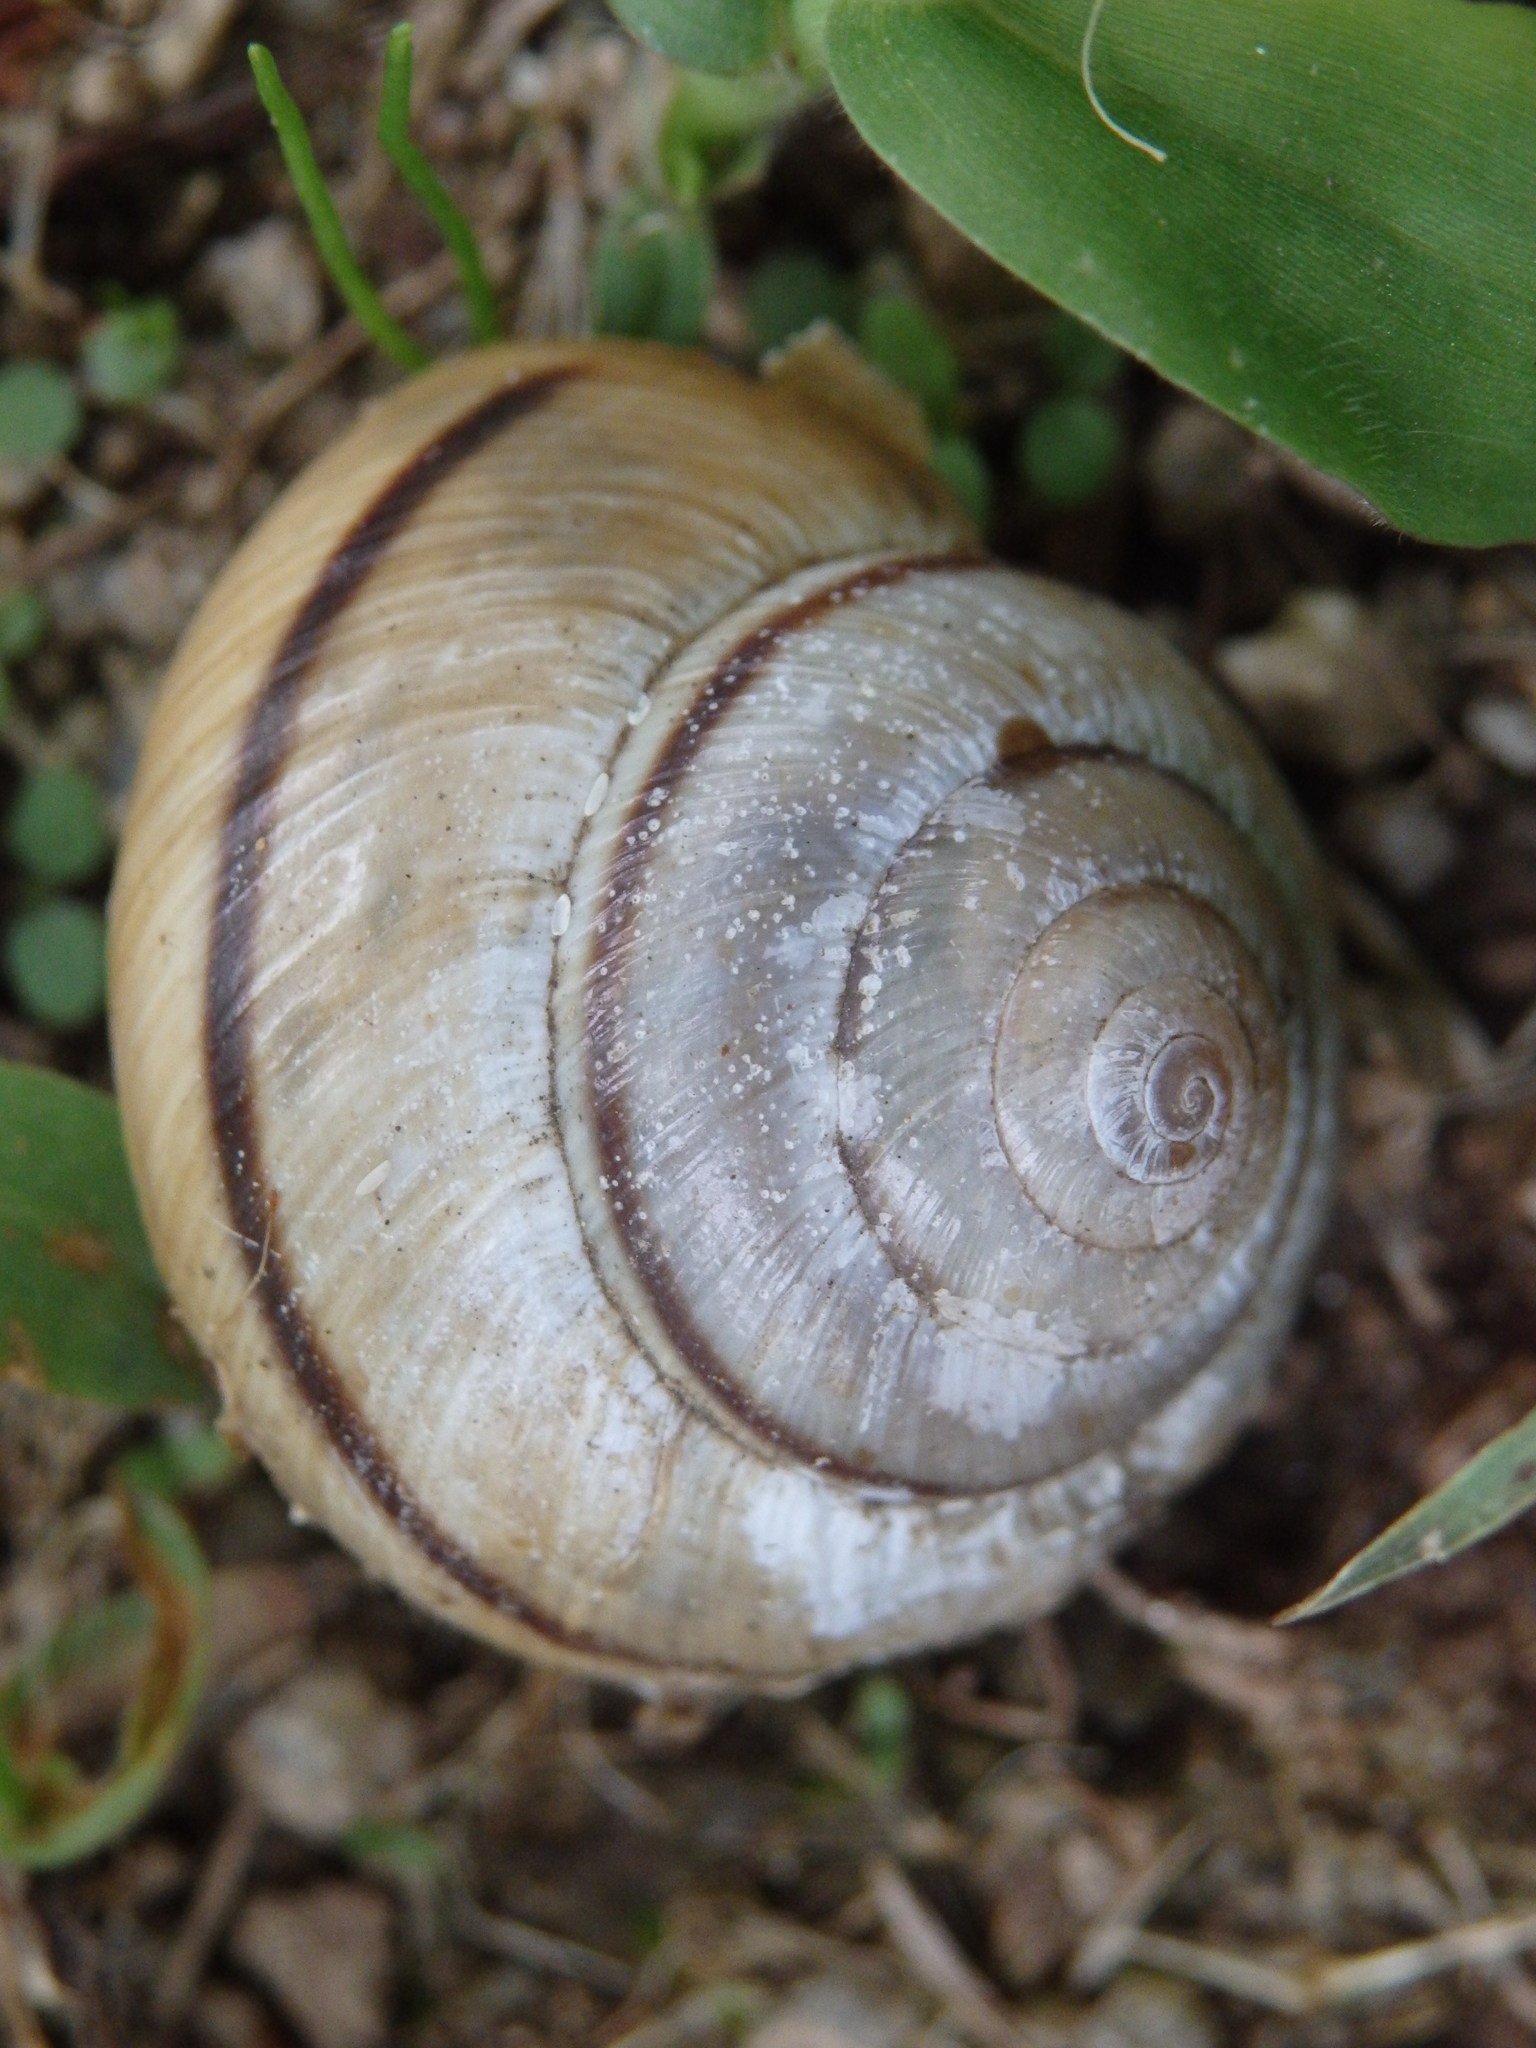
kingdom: Animalia
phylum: Mollusca
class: Gastropoda
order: Stylommatophora
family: Hygromiidae
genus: Portugala
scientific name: Portugala inchoata
